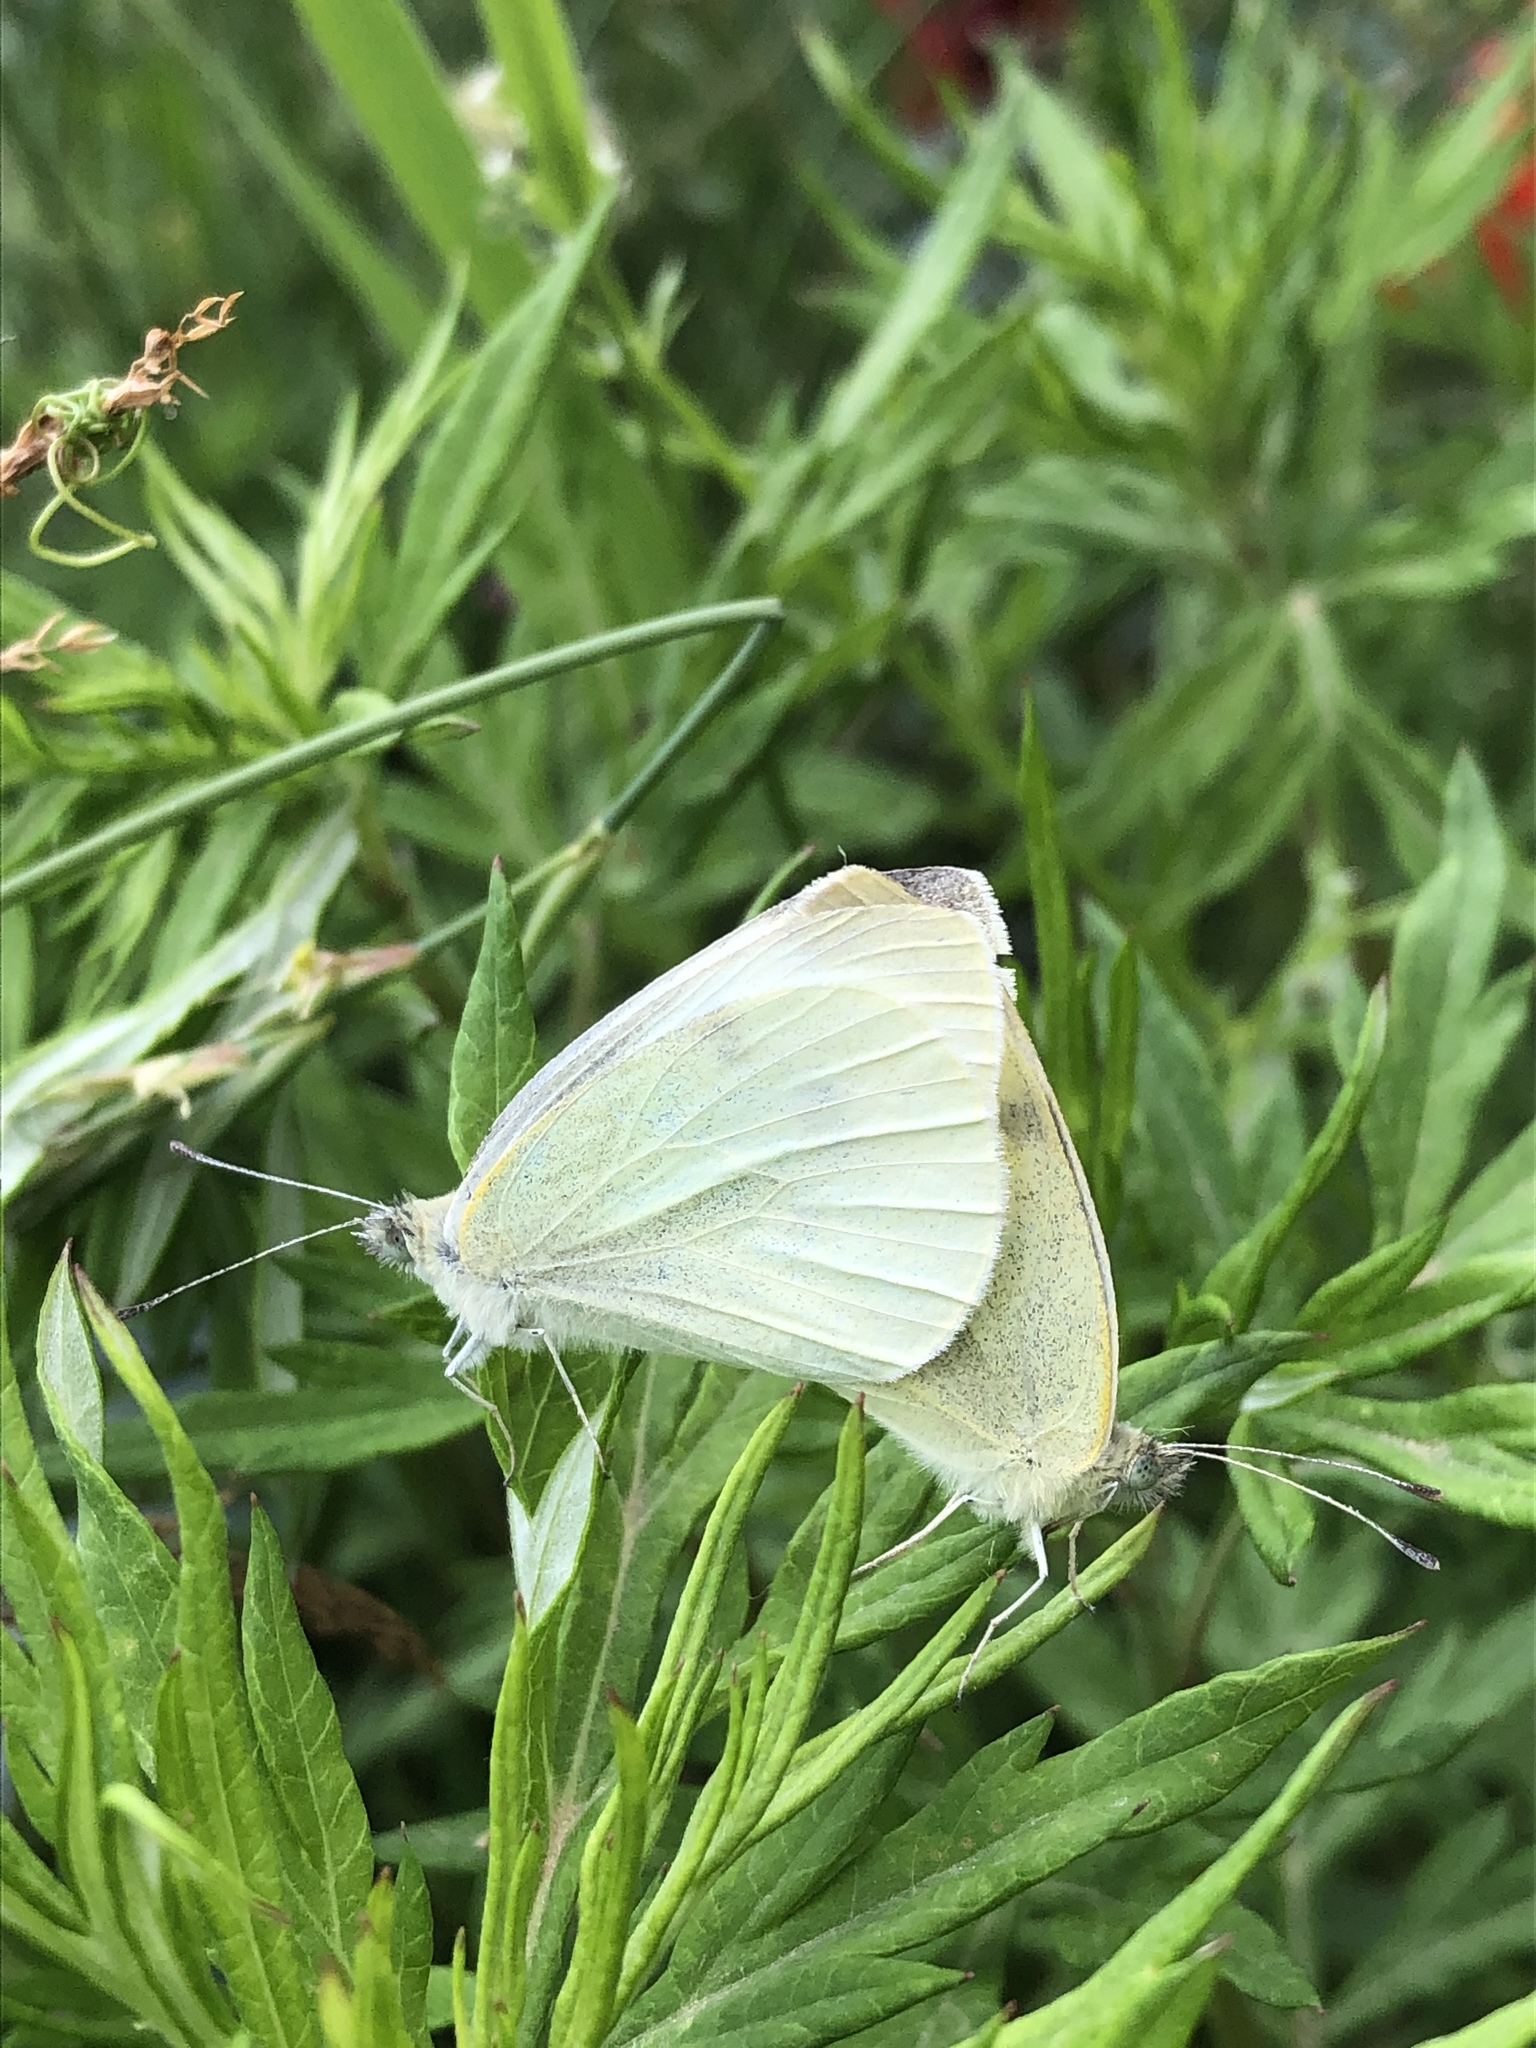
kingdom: Animalia
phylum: Arthropoda
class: Insecta
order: Lepidoptera
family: Pieridae
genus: Pieris
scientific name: Pieris rapae
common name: Small white
